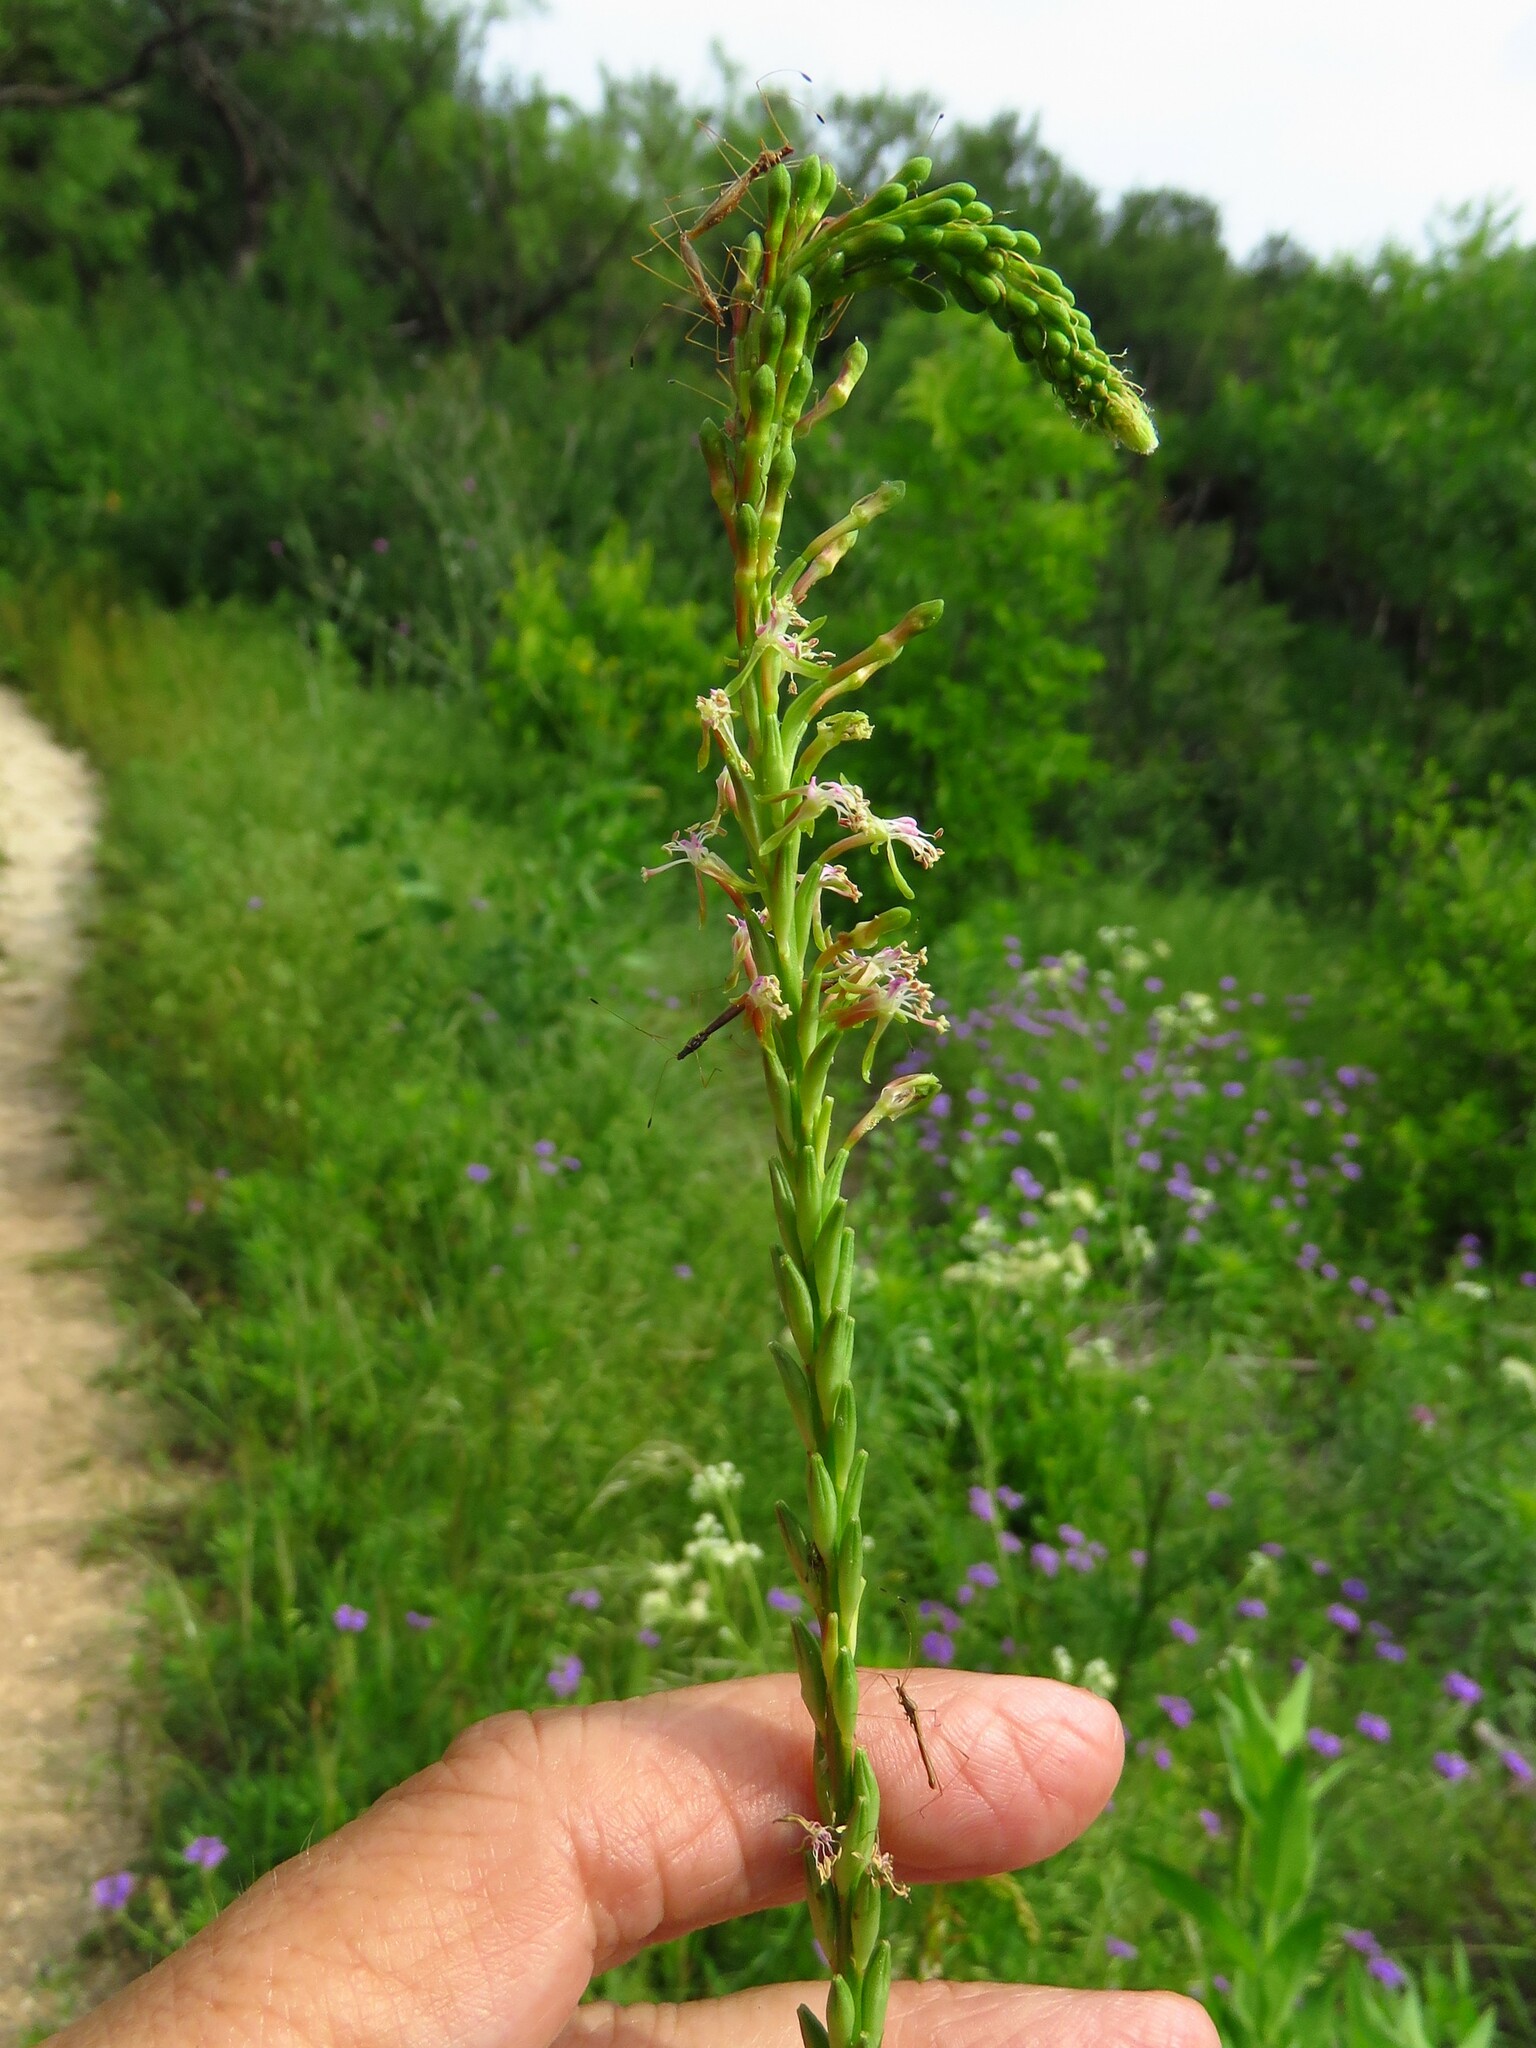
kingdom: Plantae
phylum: Tracheophyta
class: Magnoliopsida
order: Myrtales
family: Onagraceae
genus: Oenothera
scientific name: Oenothera curtiflora
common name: Velvetweed
